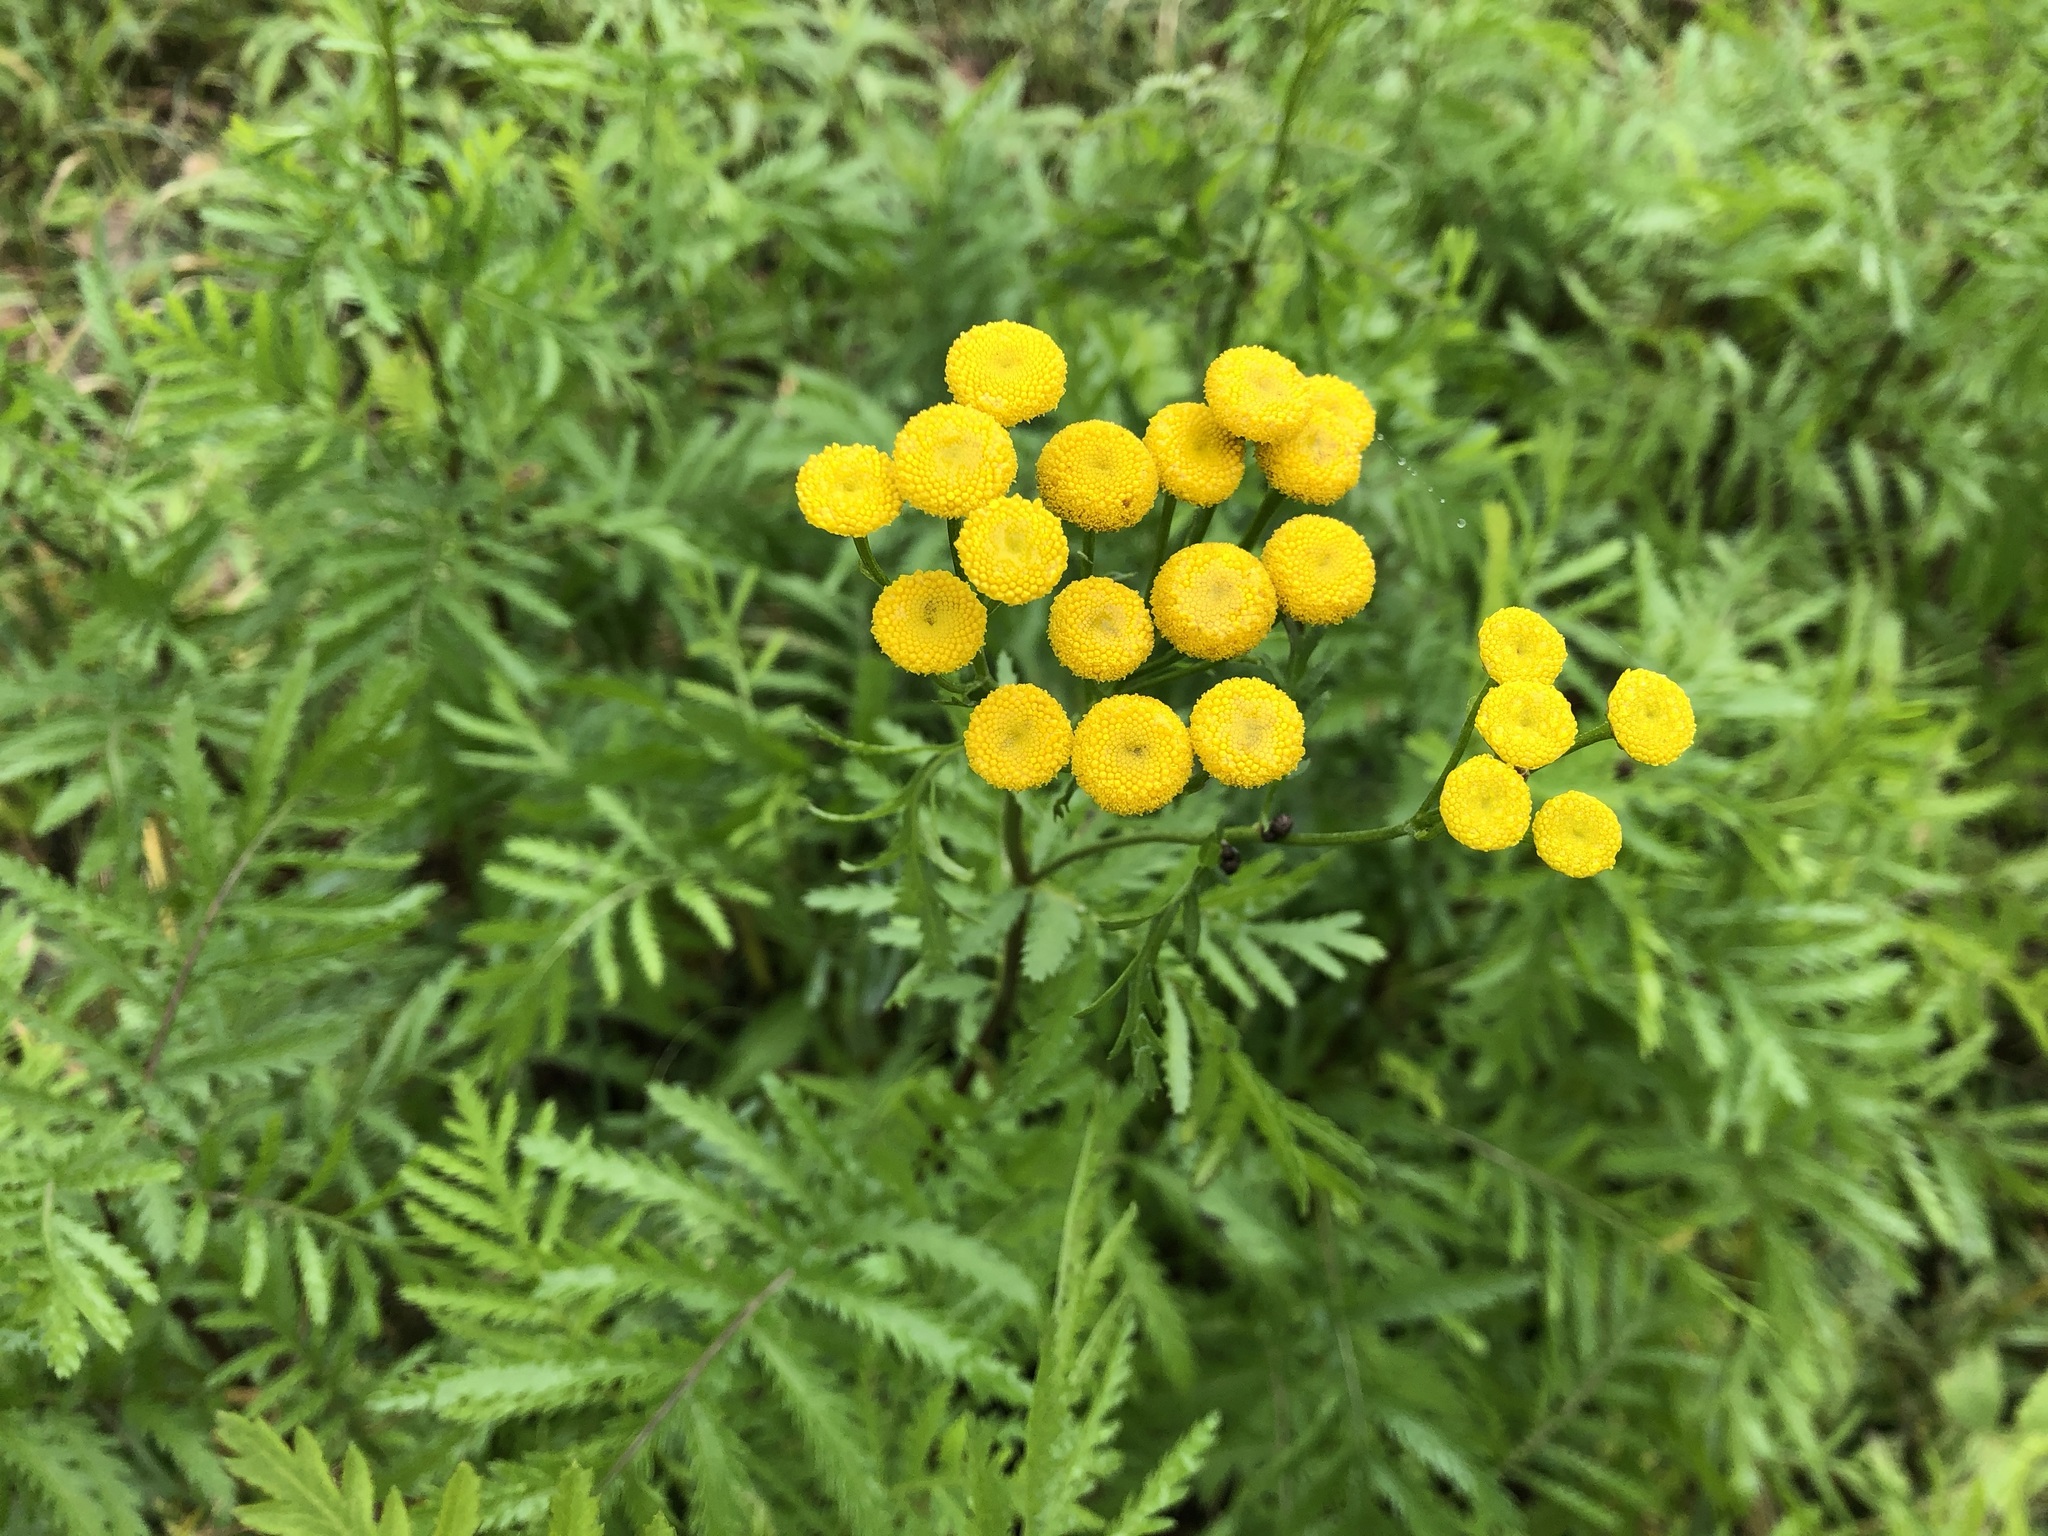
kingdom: Plantae
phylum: Tracheophyta
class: Magnoliopsida
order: Asterales
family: Asteraceae
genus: Tanacetum
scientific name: Tanacetum vulgare
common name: Common tansy
